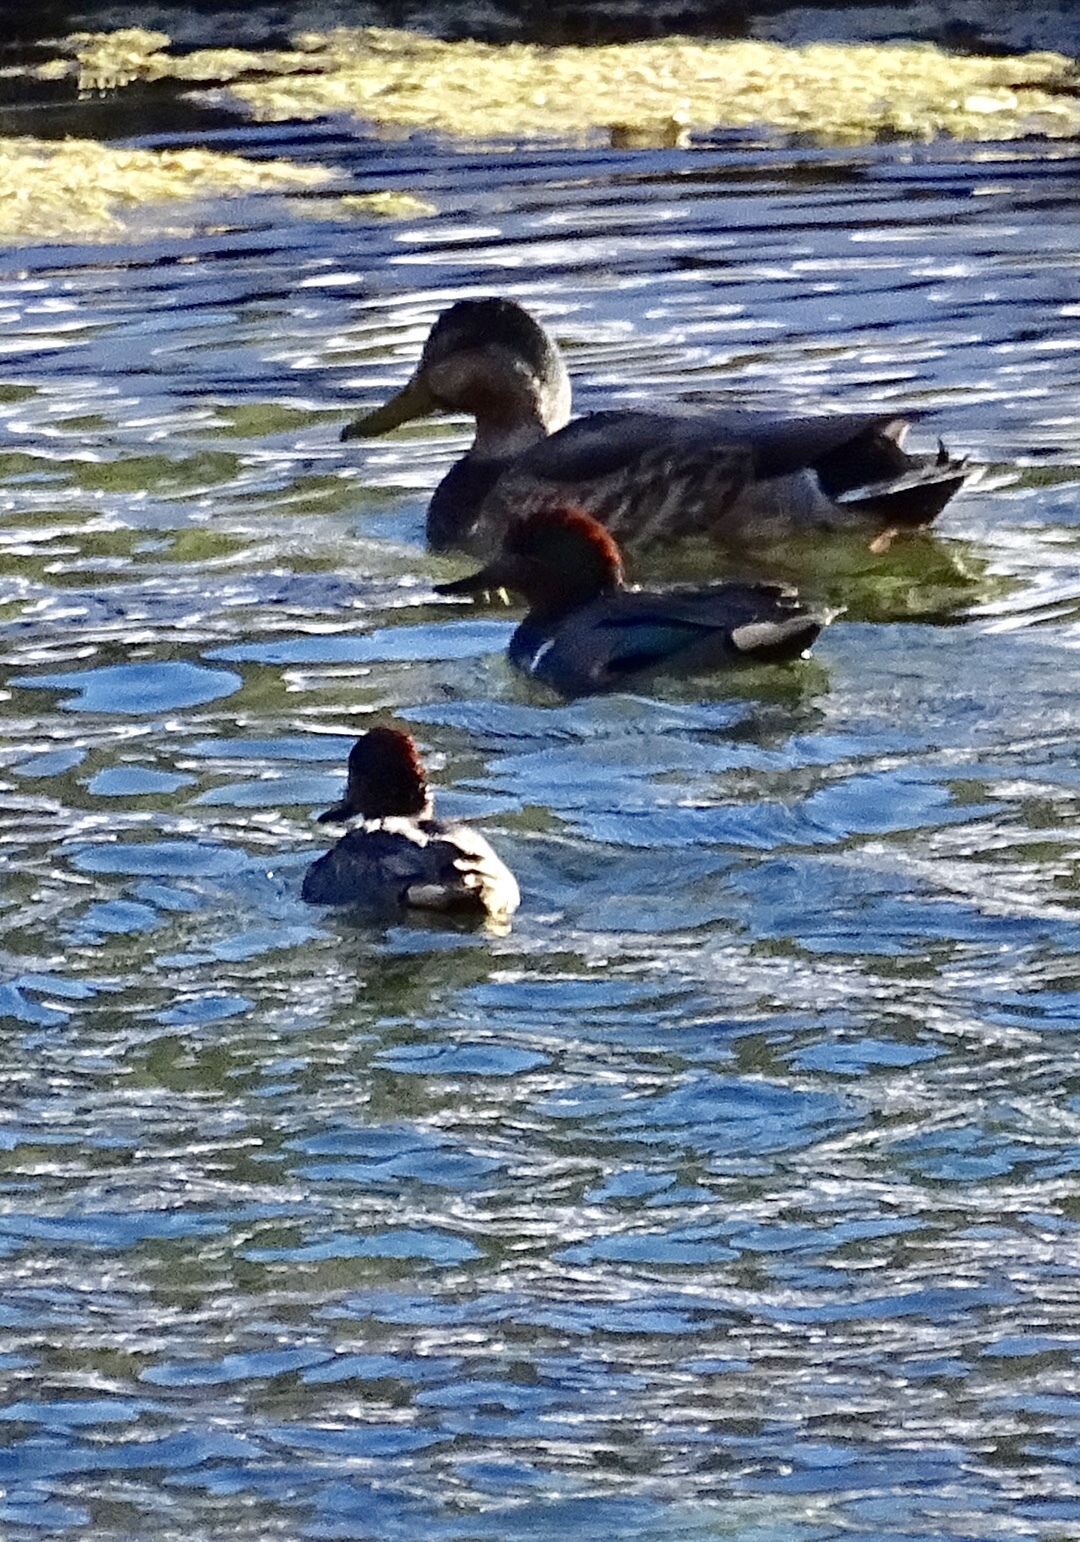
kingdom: Animalia
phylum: Chordata
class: Aves
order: Anseriformes
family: Anatidae
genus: Anas
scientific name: Anas crecca
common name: Eurasian teal
